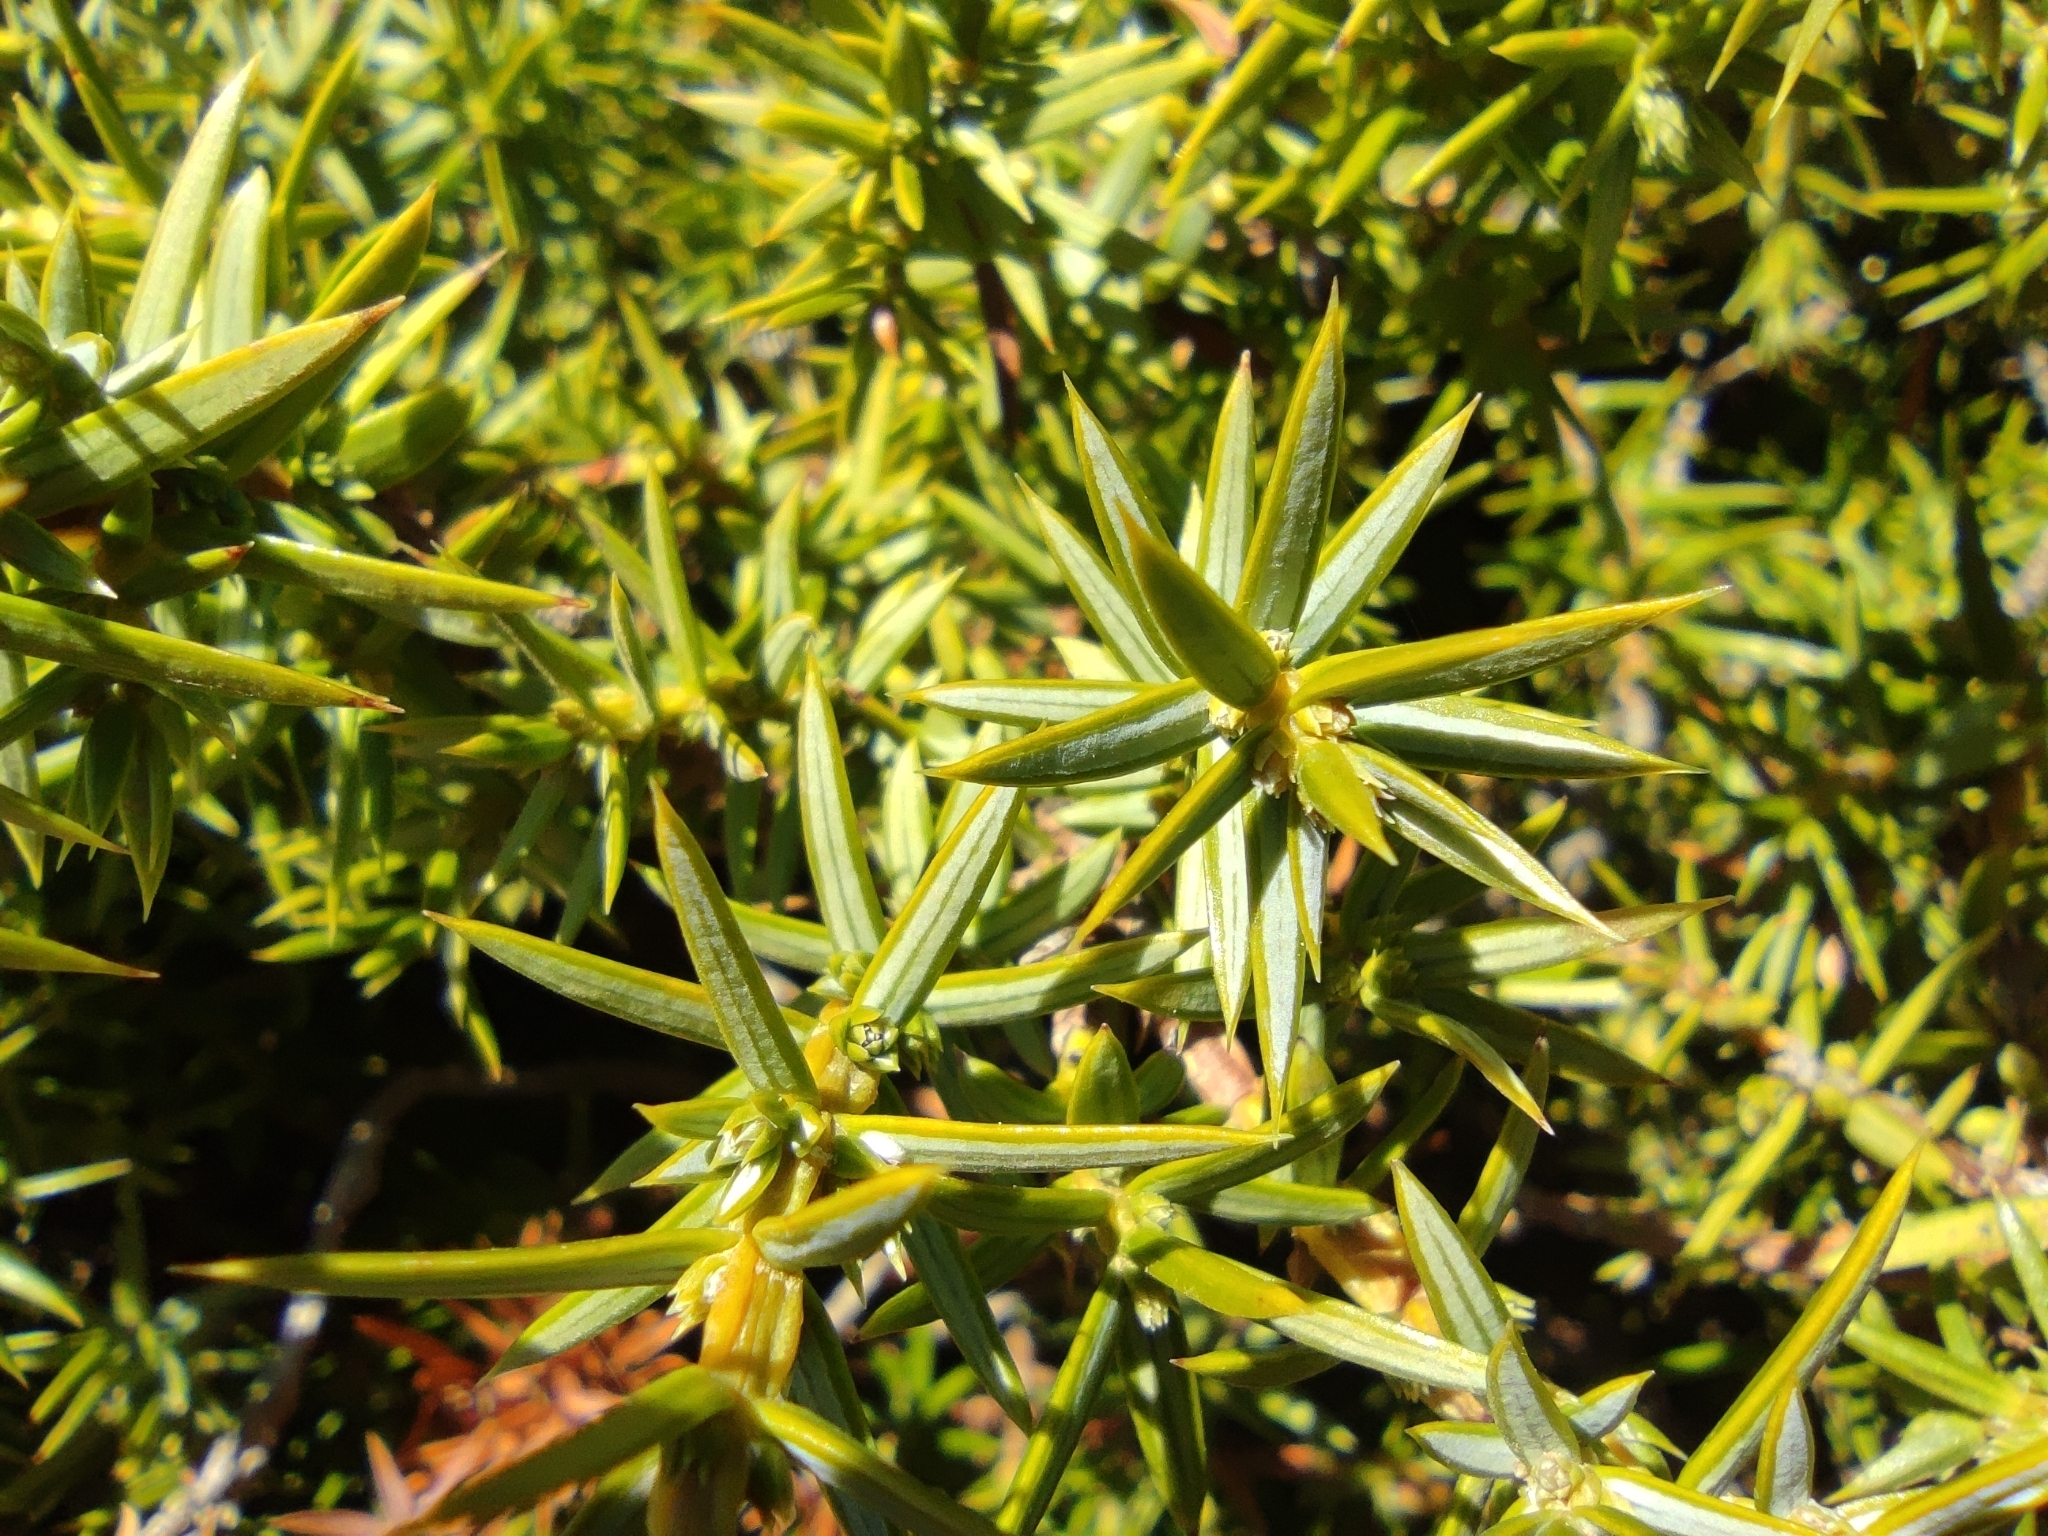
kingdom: Plantae
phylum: Tracheophyta
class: Pinopsida
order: Pinales
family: Cupressaceae
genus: Juniperus
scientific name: Juniperus communis
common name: Common juniper
